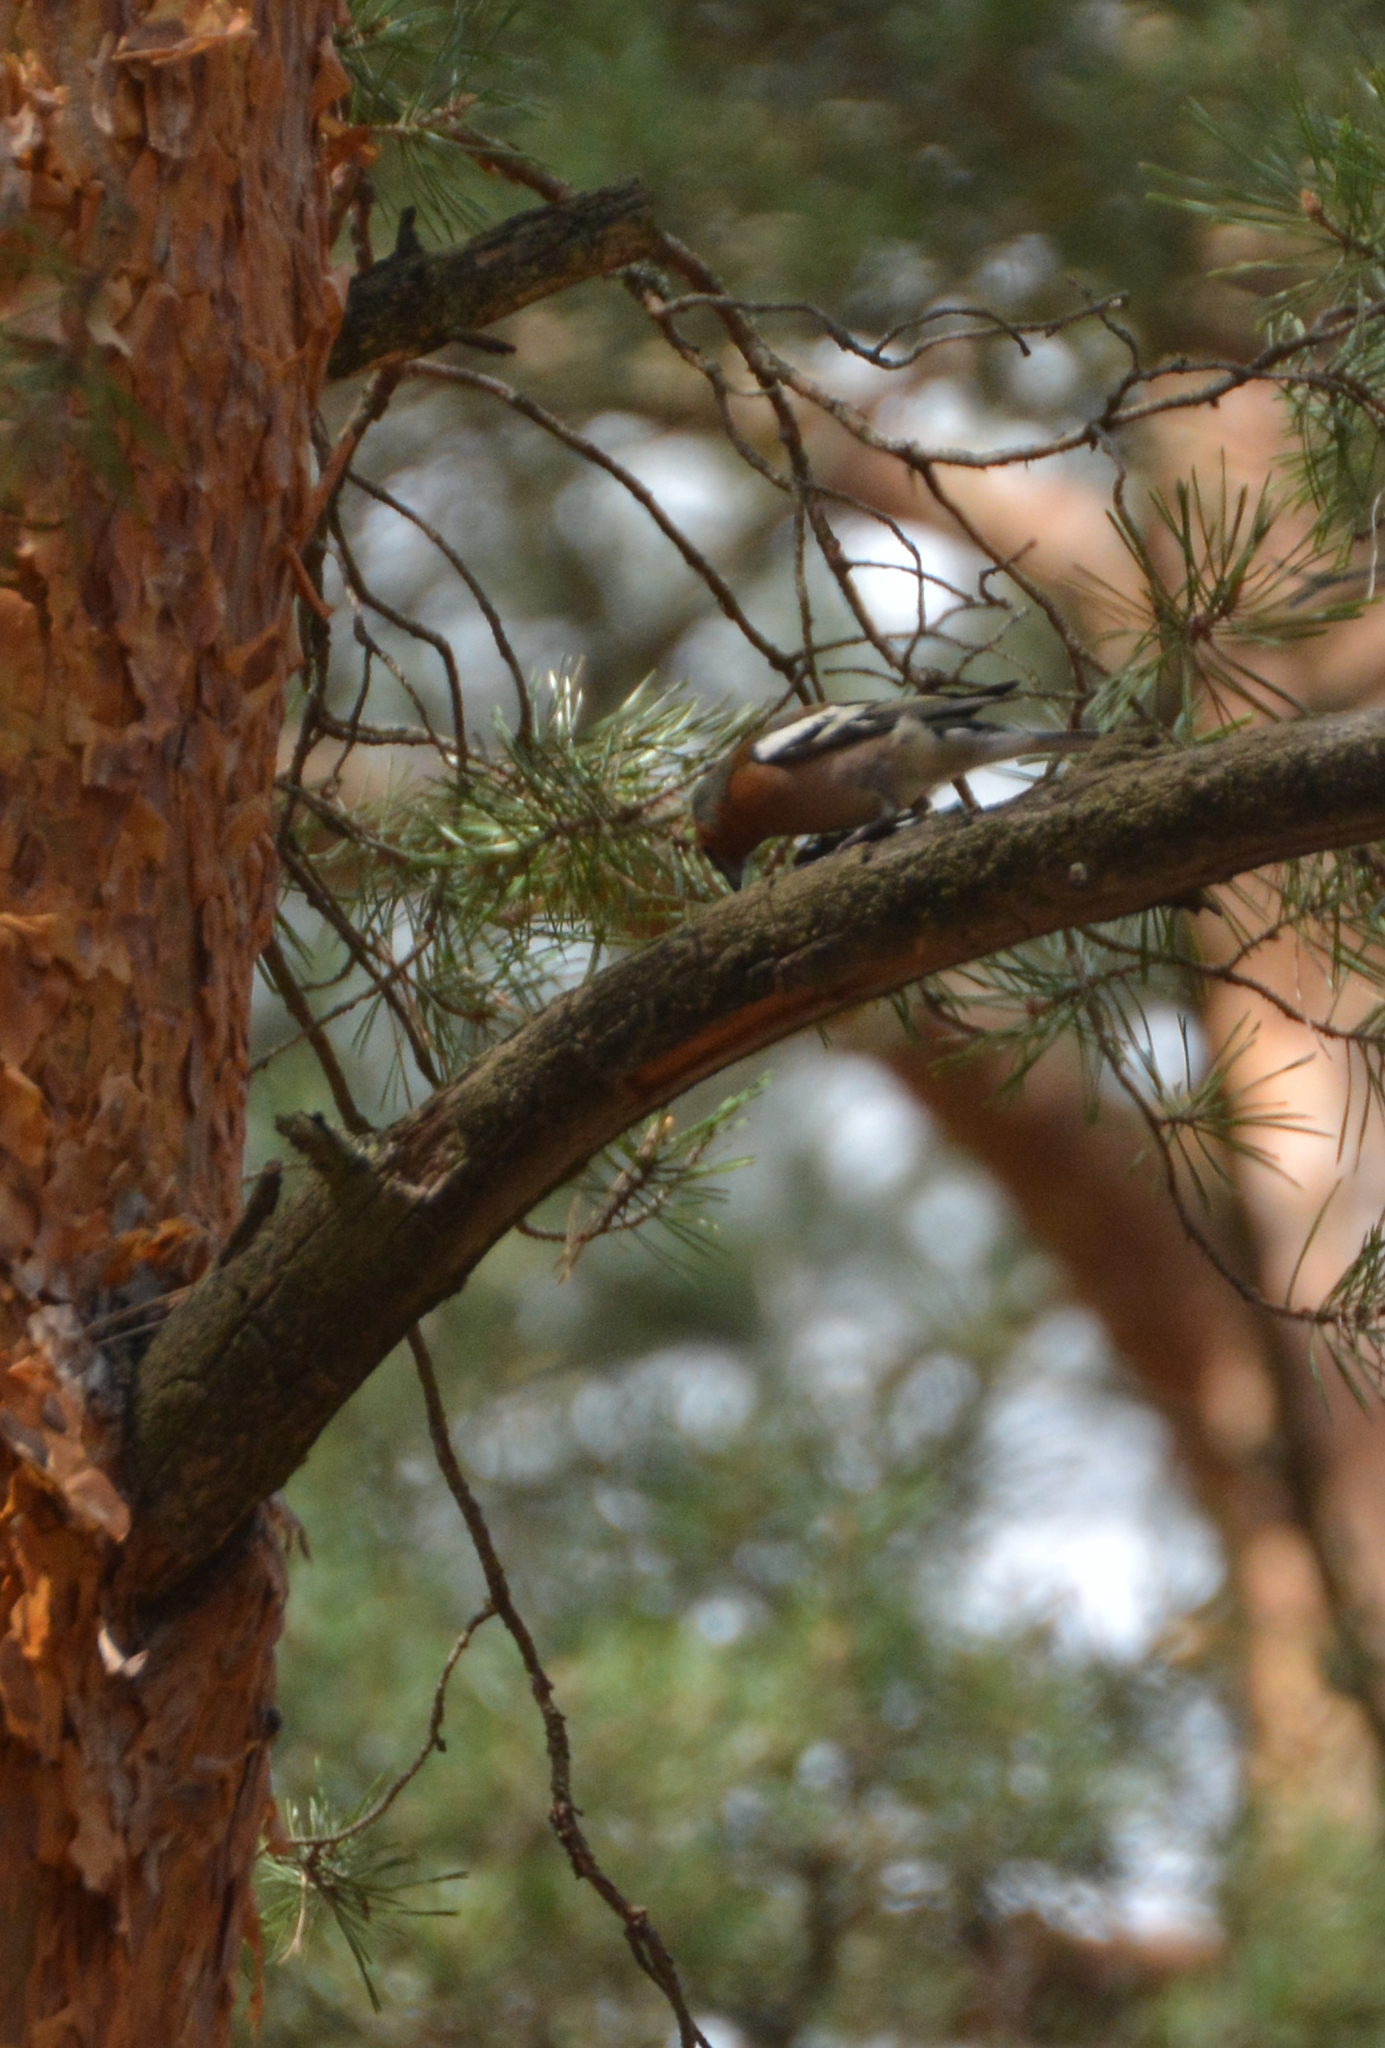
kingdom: Animalia
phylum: Chordata
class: Aves
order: Passeriformes
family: Fringillidae
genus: Fringilla
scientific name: Fringilla coelebs
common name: Common chaffinch
